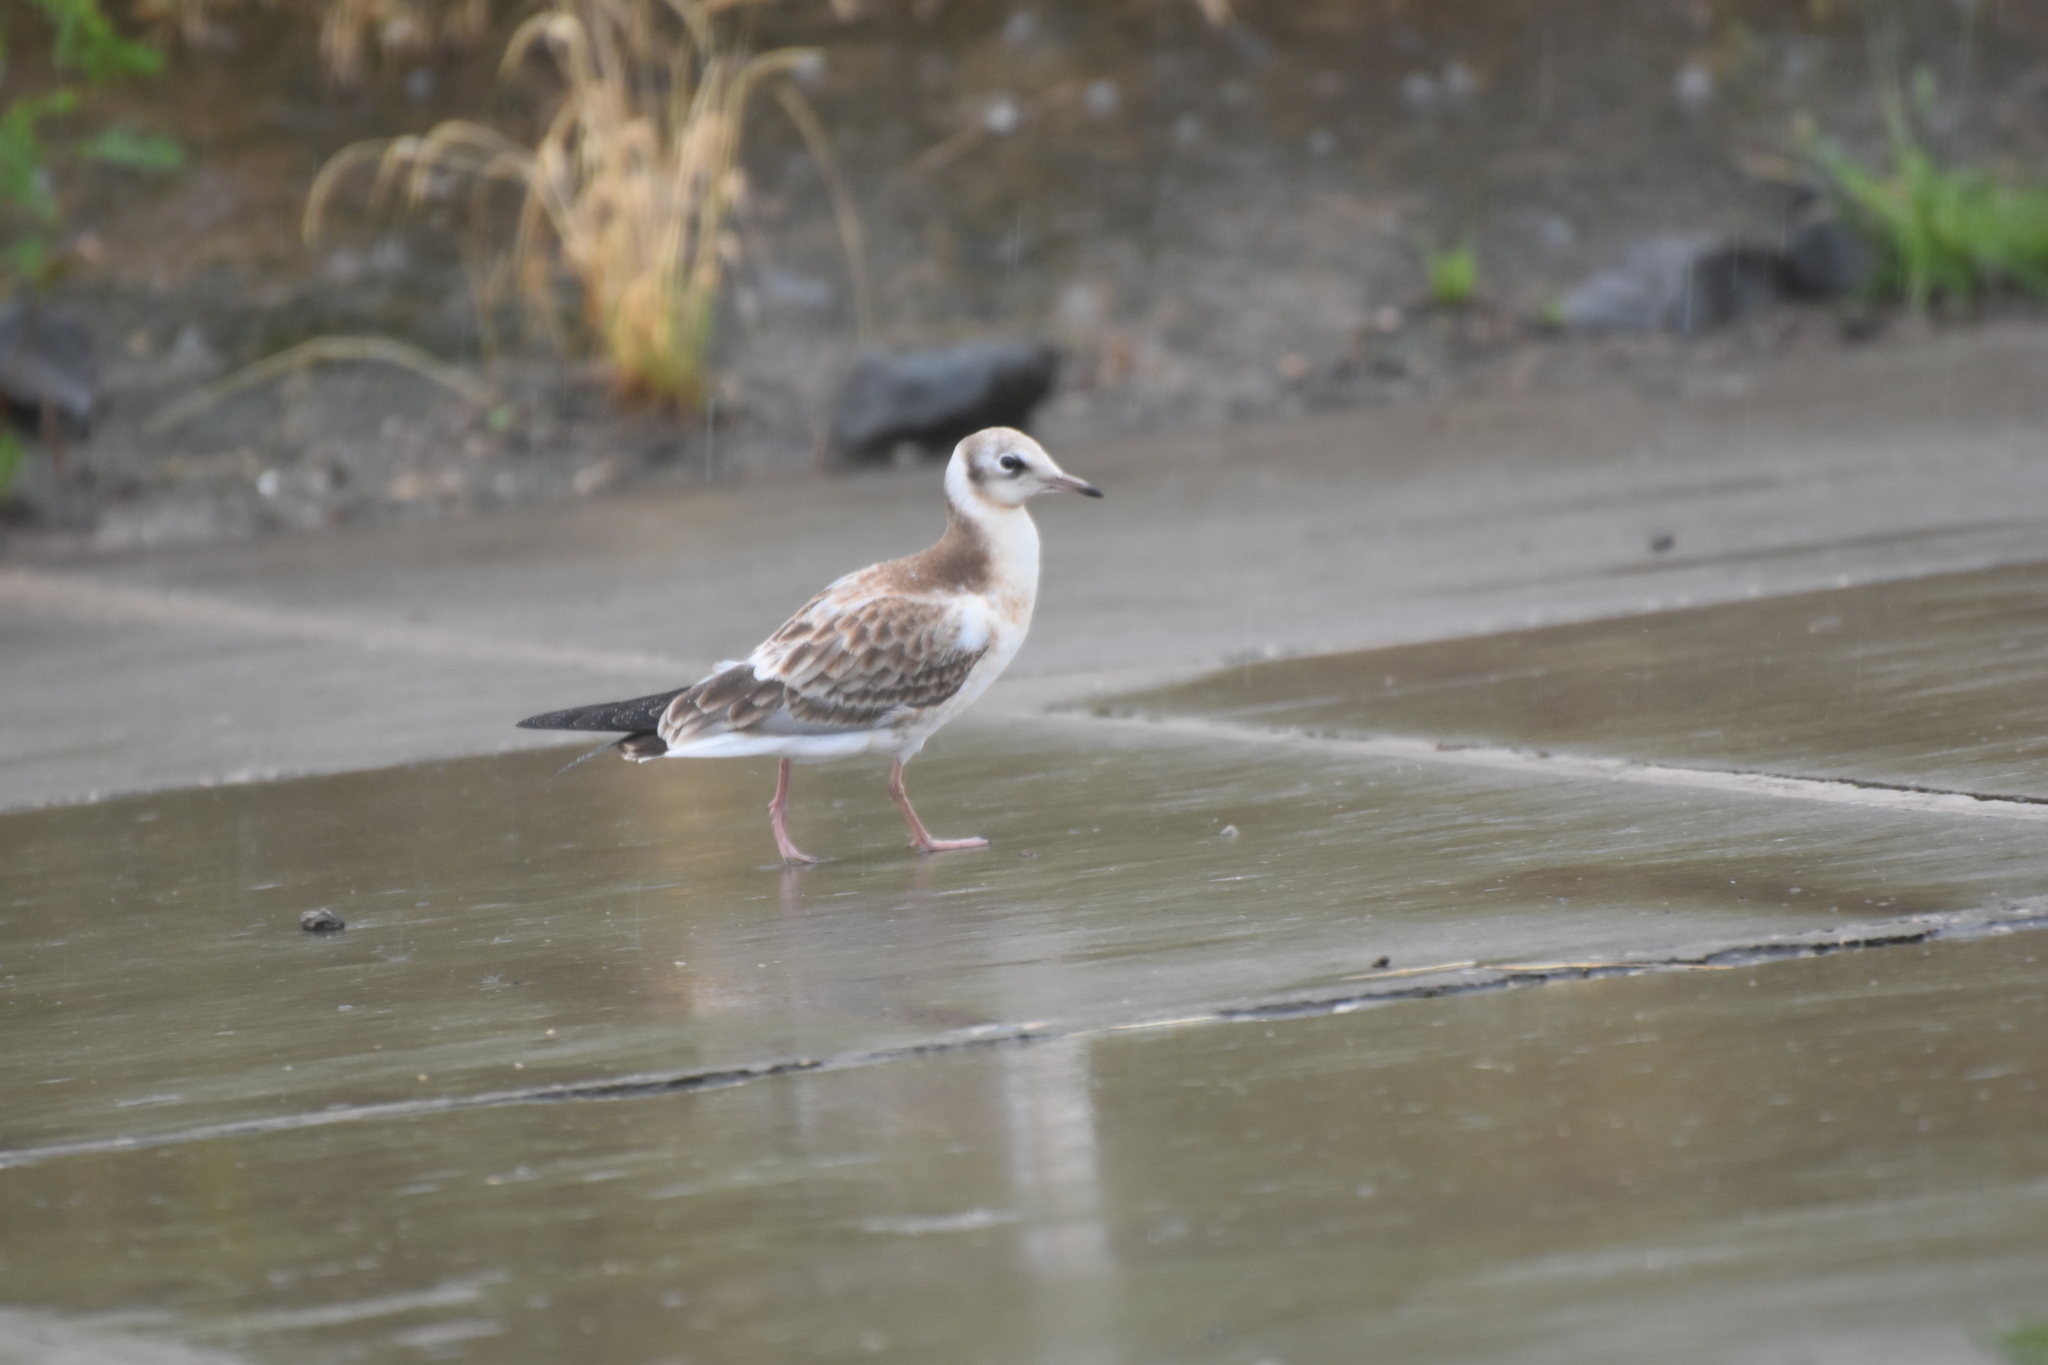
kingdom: Animalia
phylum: Chordata
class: Aves
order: Charadriiformes
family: Laridae
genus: Chroicocephalus
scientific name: Chroicocephalus ridibundus
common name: Black-headed gull
